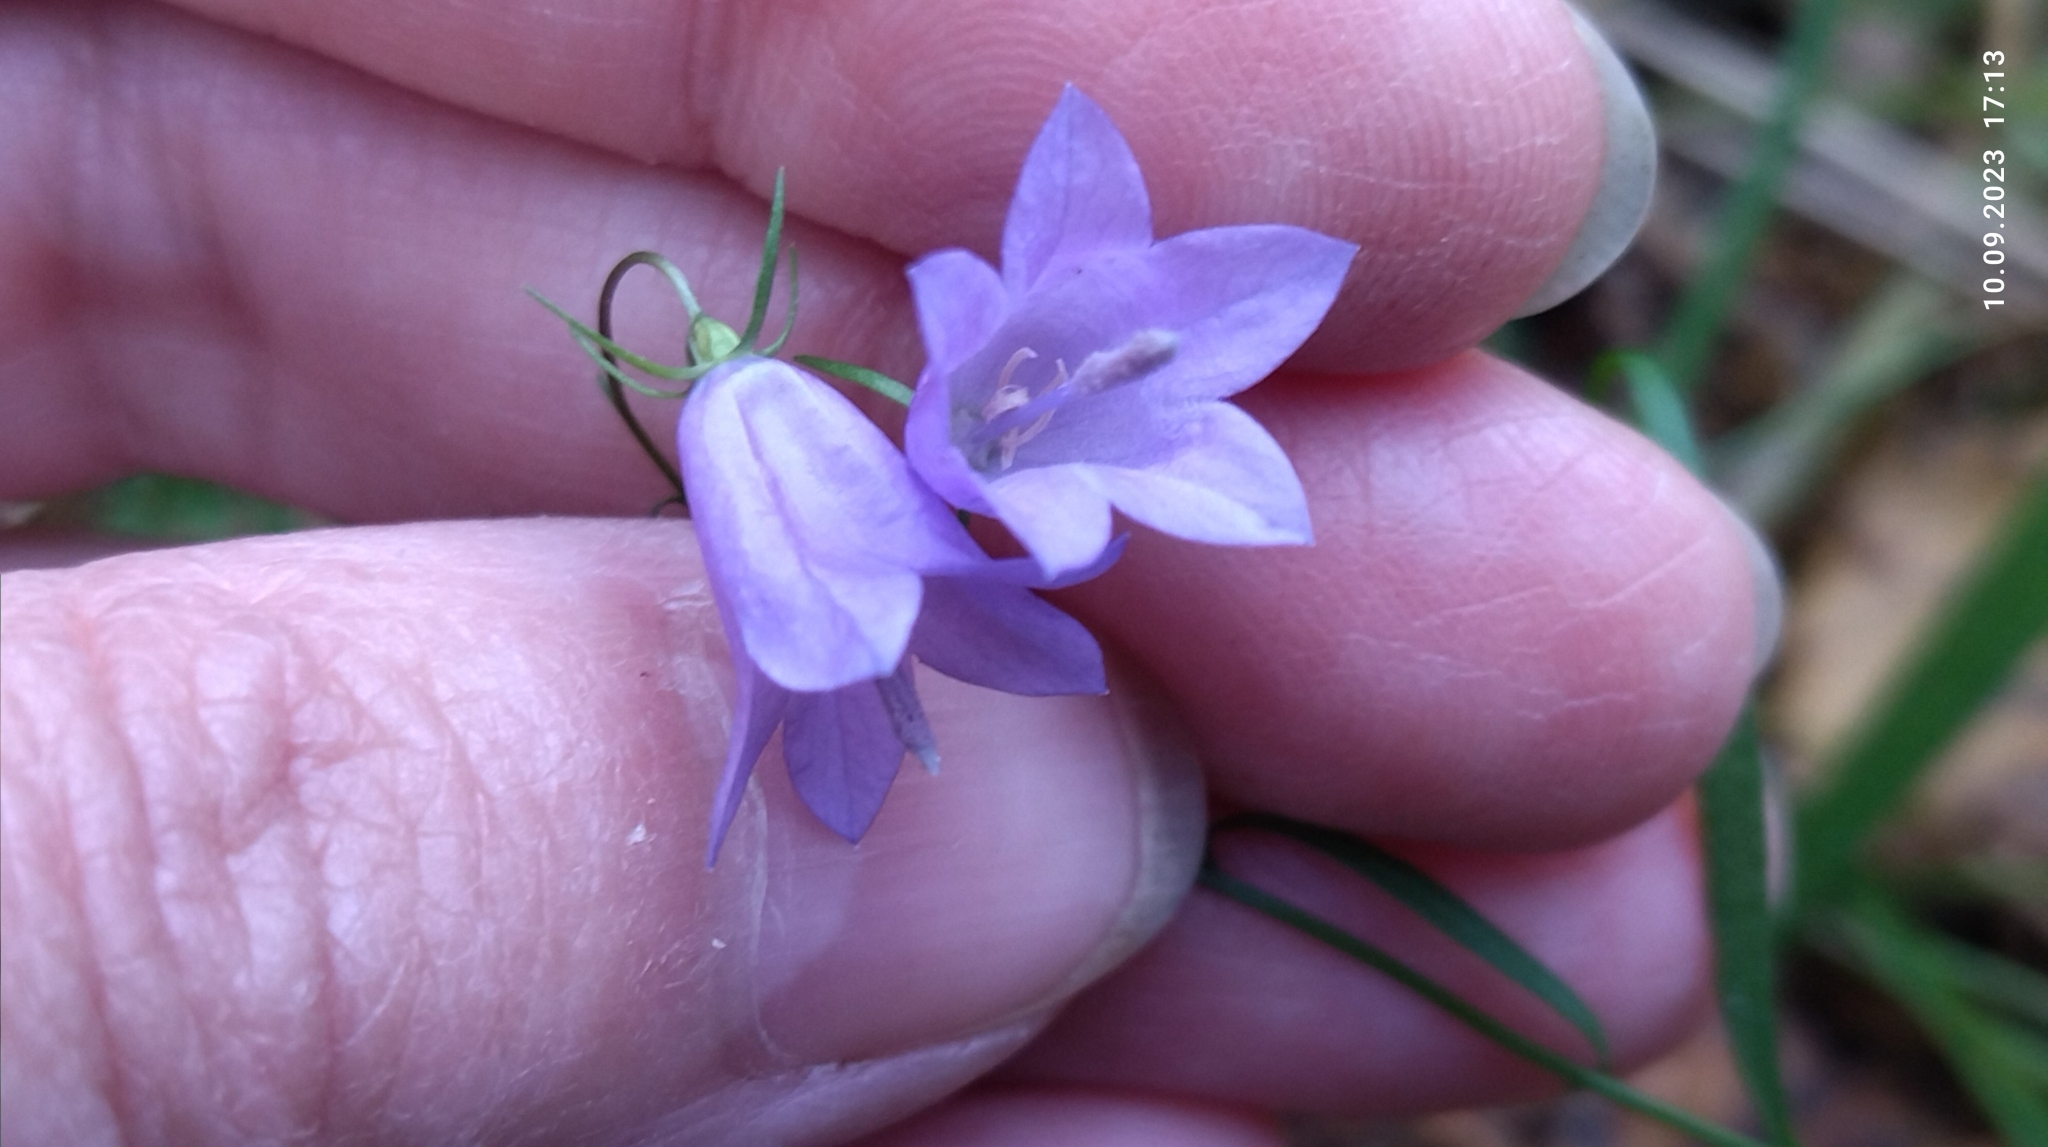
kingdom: Plantae
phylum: Tracheophyta
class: Magnoliopsida
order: Asterales
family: Campanulaceae
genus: Campanula
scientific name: Campanula rotundifolia
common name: Harebell
